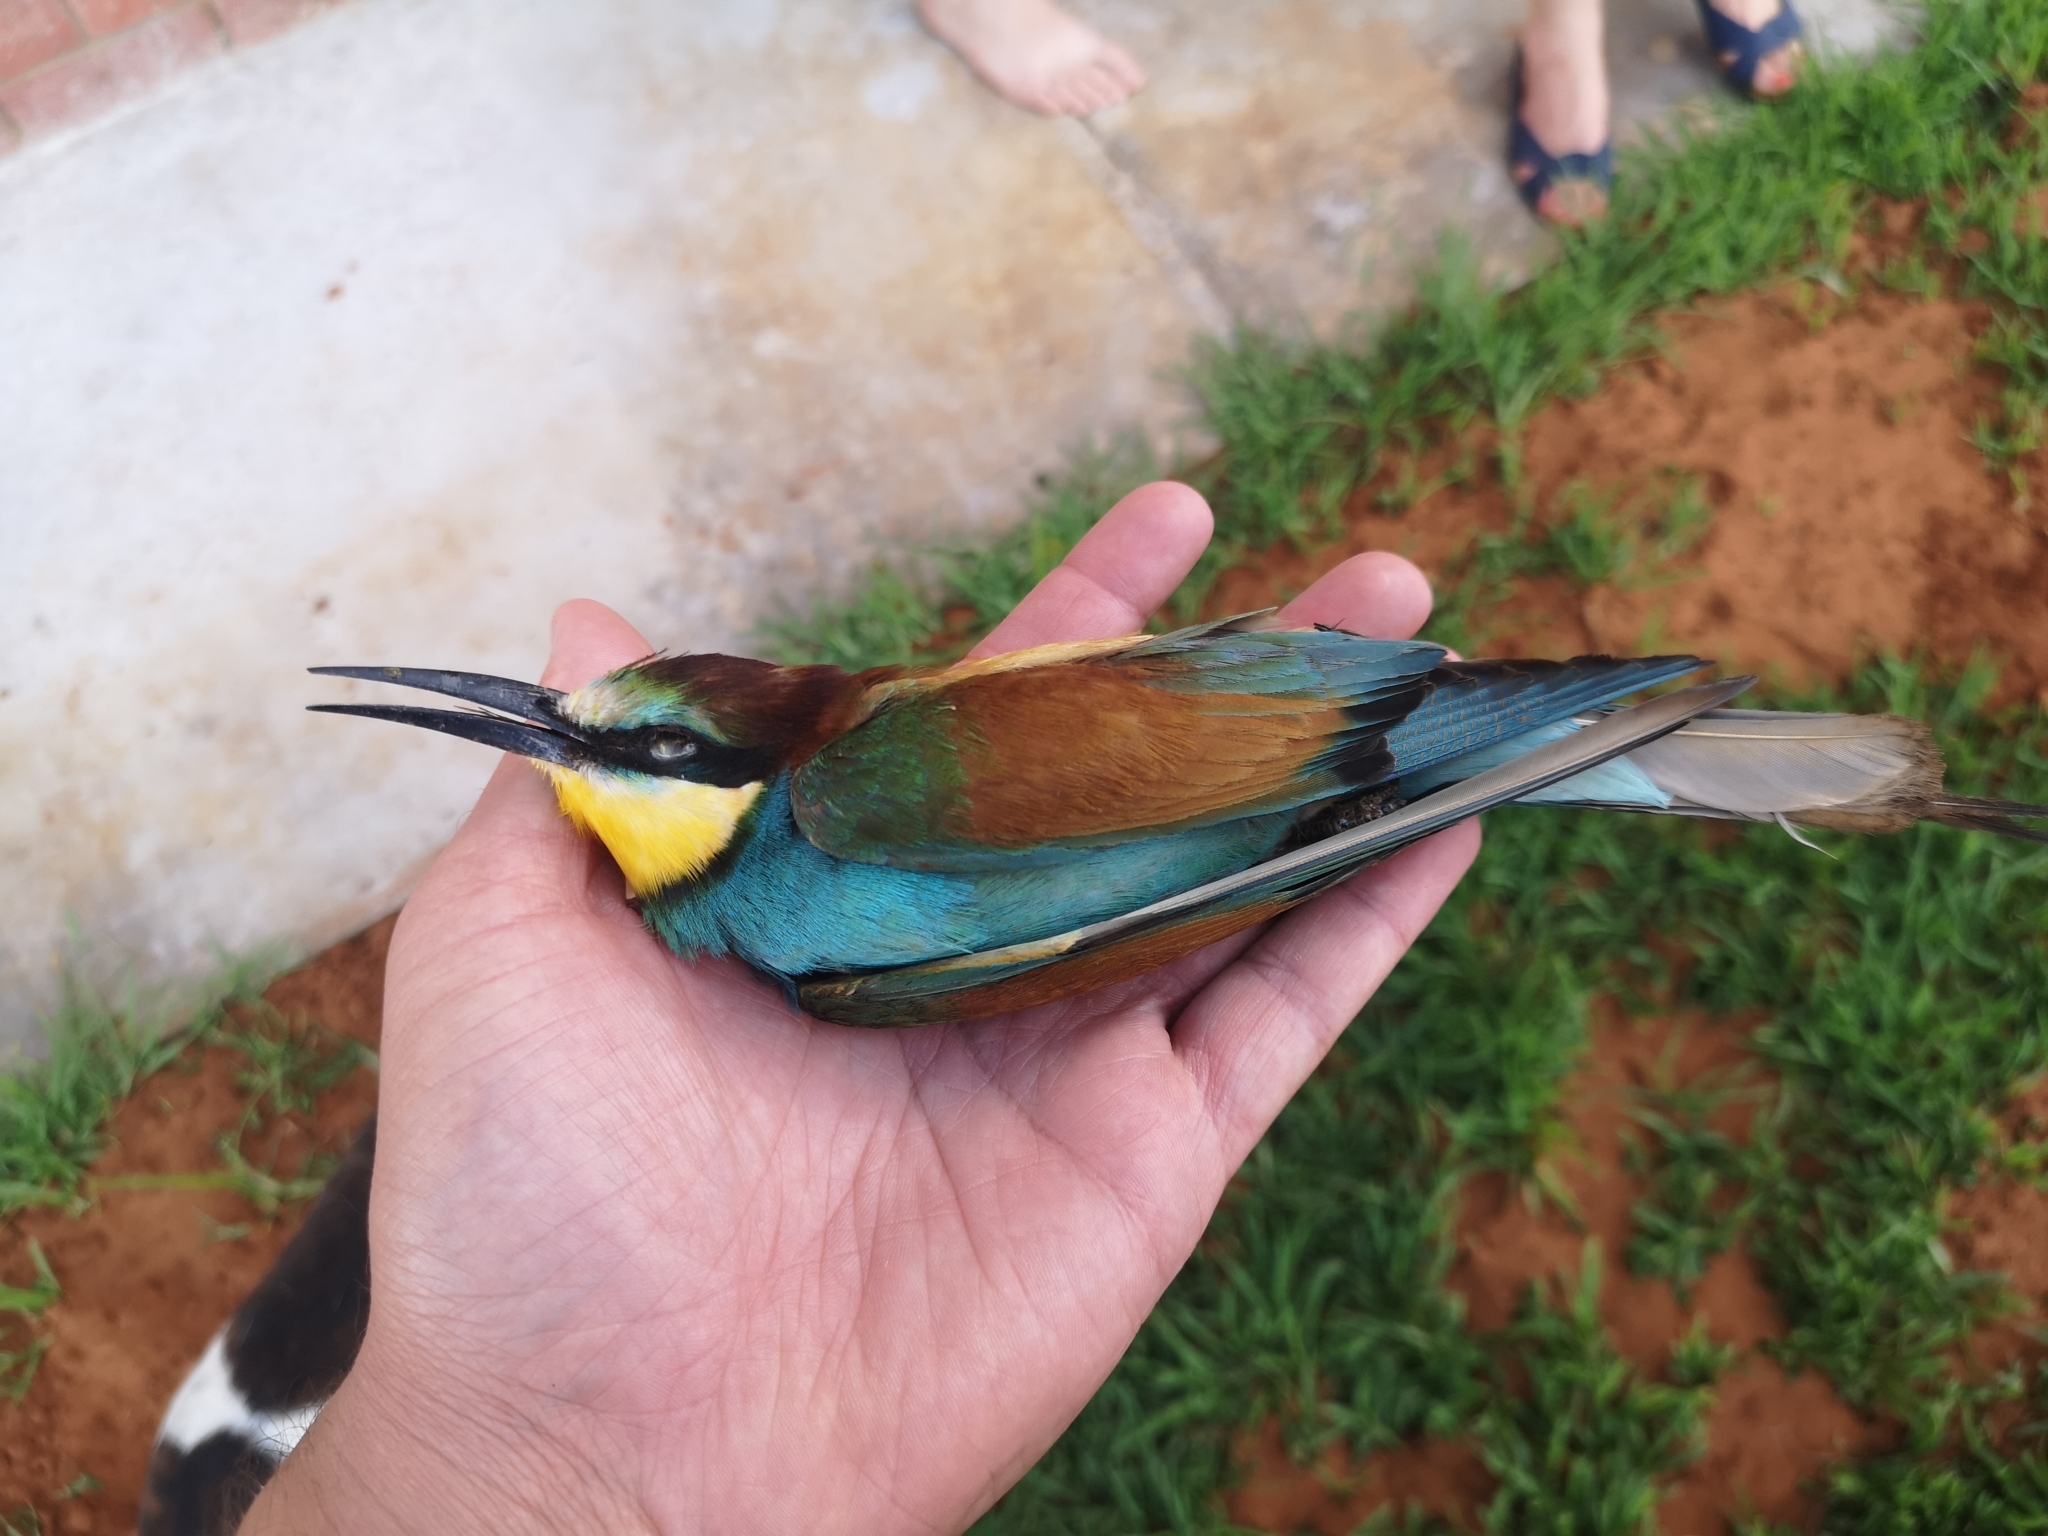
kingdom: Animalia
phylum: Chordata
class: Aves
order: Coraciiformes
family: Meropidae
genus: Merops
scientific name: Merops apiaster
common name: European bee-eater
